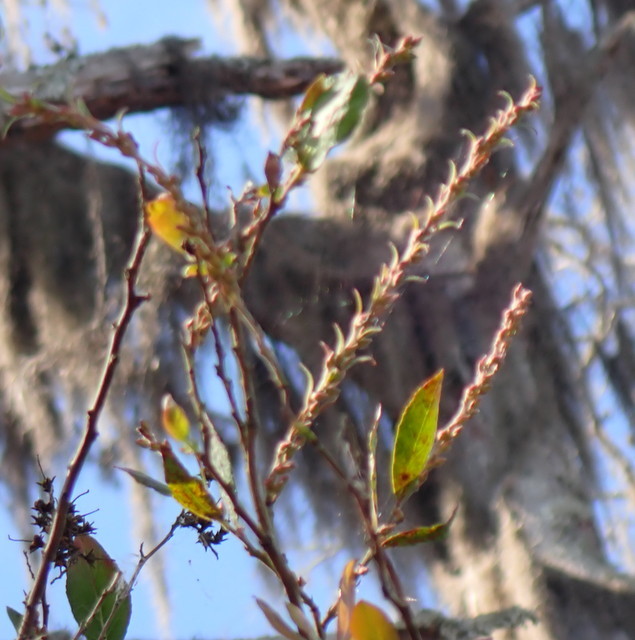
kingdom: Plantae
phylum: Tracheophyta
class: Magnoliopsida
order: Ericales
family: Ericaceae
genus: Eubotrys
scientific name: Eubotrys racemosa
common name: Fetterbush
